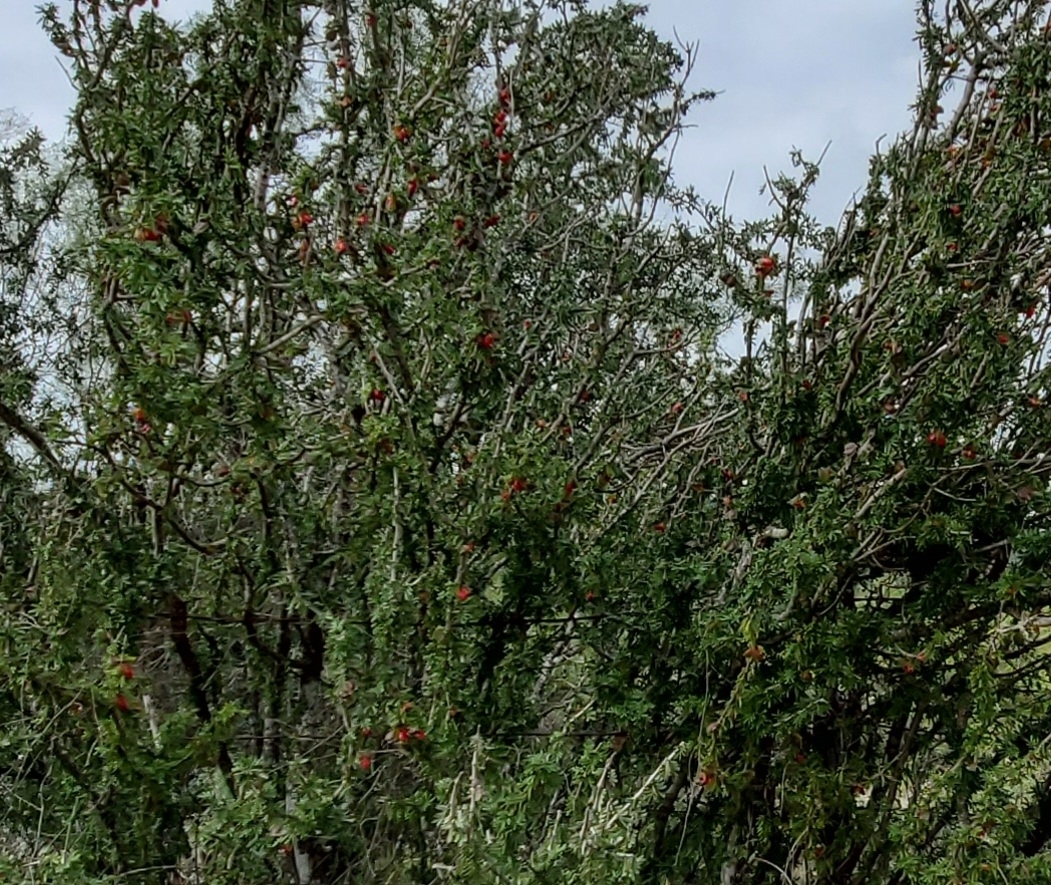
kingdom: Plantae
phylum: Tracheophyta
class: Magnoliopsida
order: Zygophyllales
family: Zygophyllaceae
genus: Porlieria
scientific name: Porlieria angustifolia
